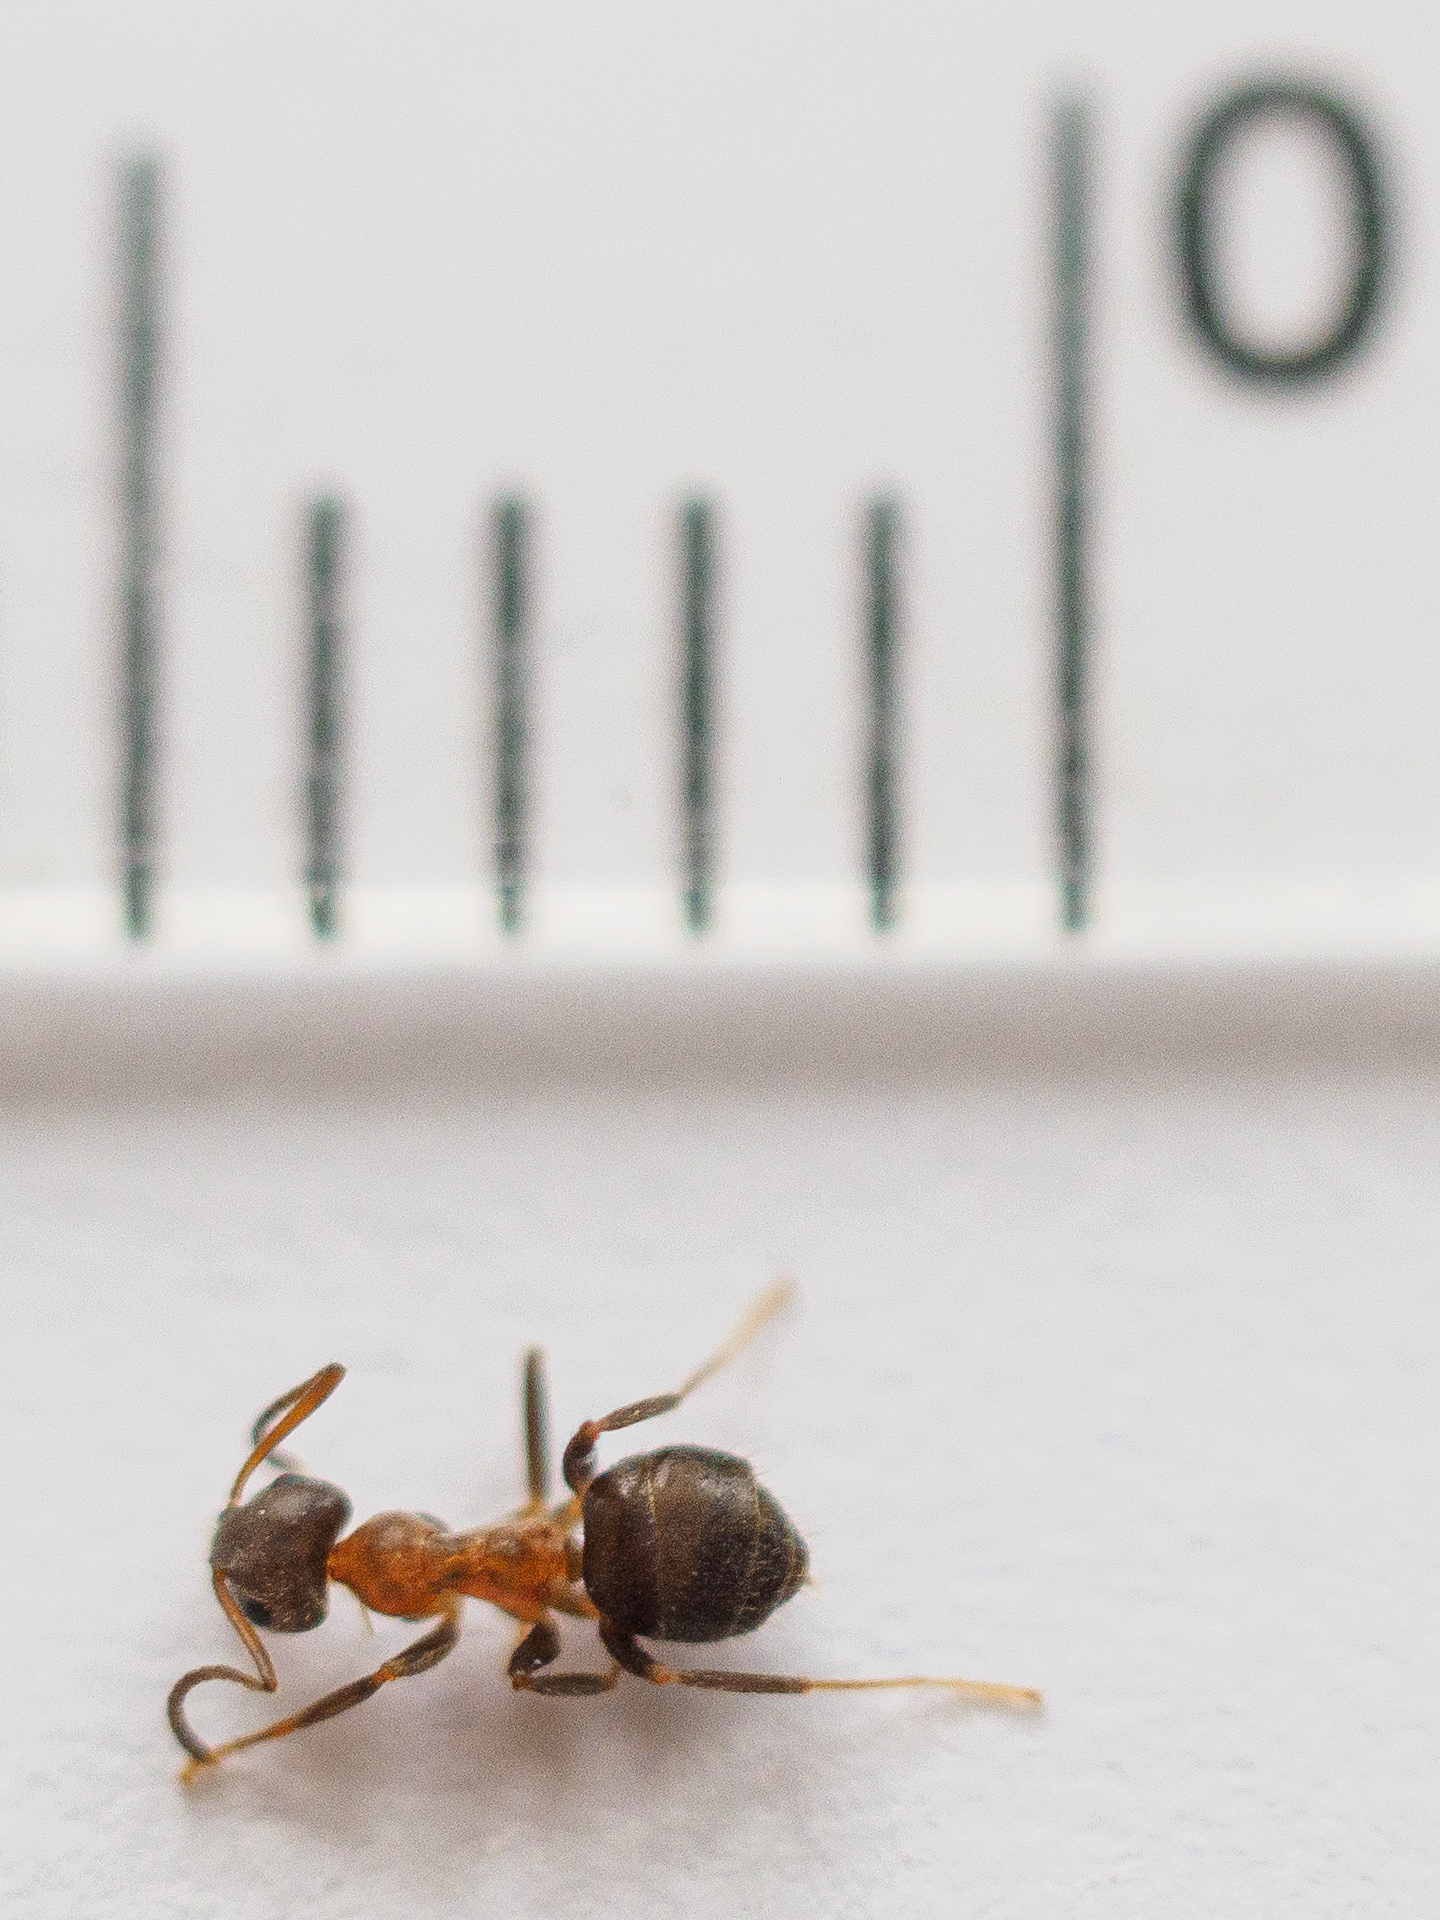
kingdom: Animalia
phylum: Arthropoda
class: Insecta
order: Hymenoptera
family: Formicidae
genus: Lasius
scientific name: Lasius emarginatus
